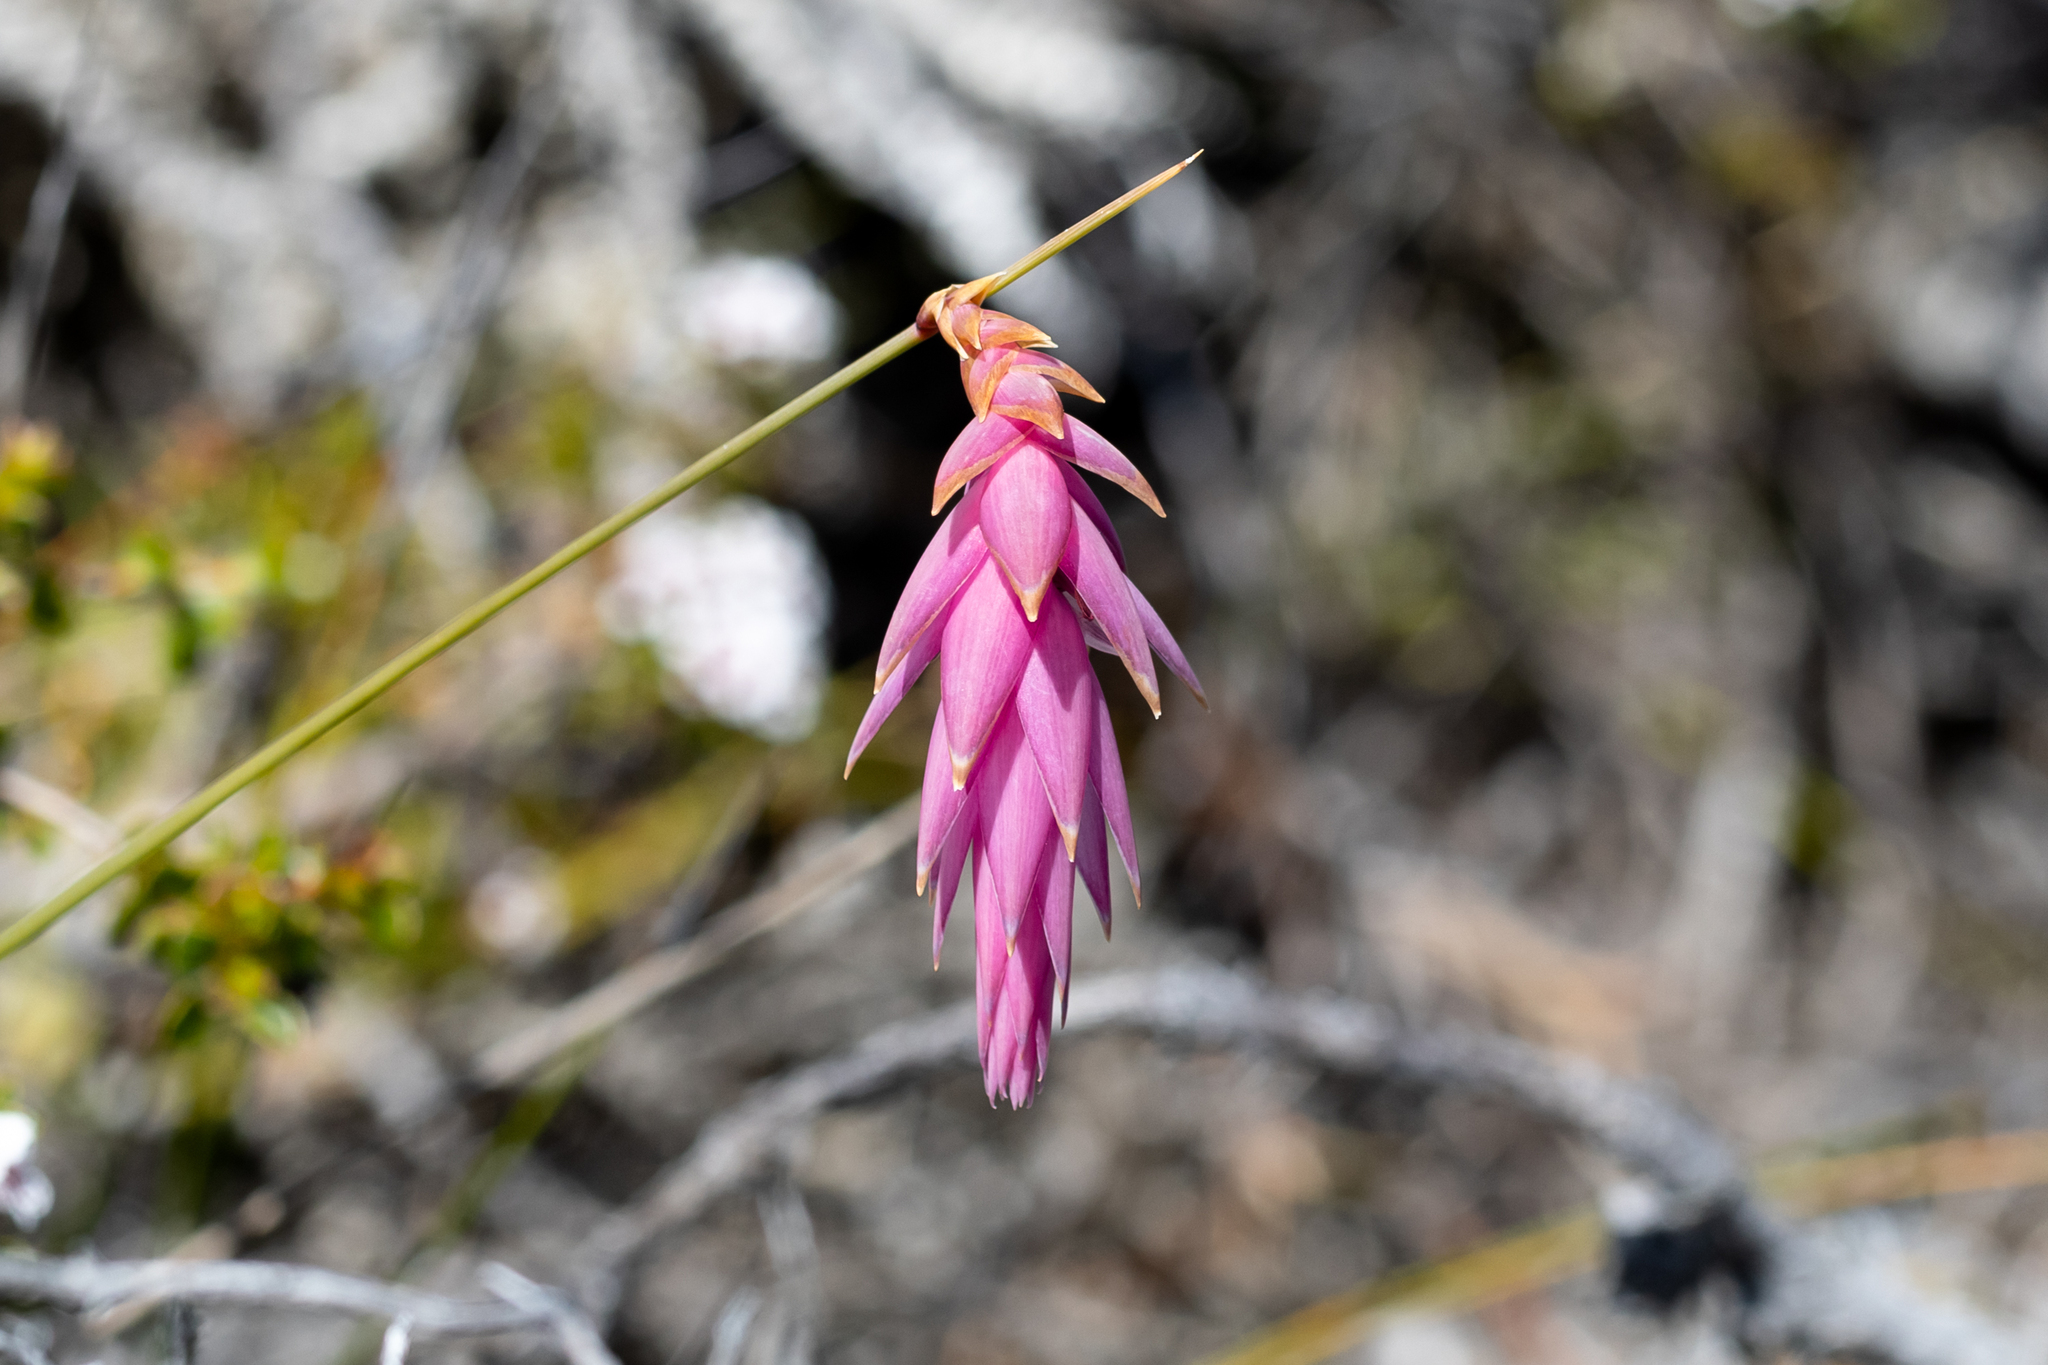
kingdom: Plantae
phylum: Tracheophyta
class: Liliopsida
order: Asparagales
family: Asphodelaceae
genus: Johnsonia
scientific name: Johnsonia teretifolia
